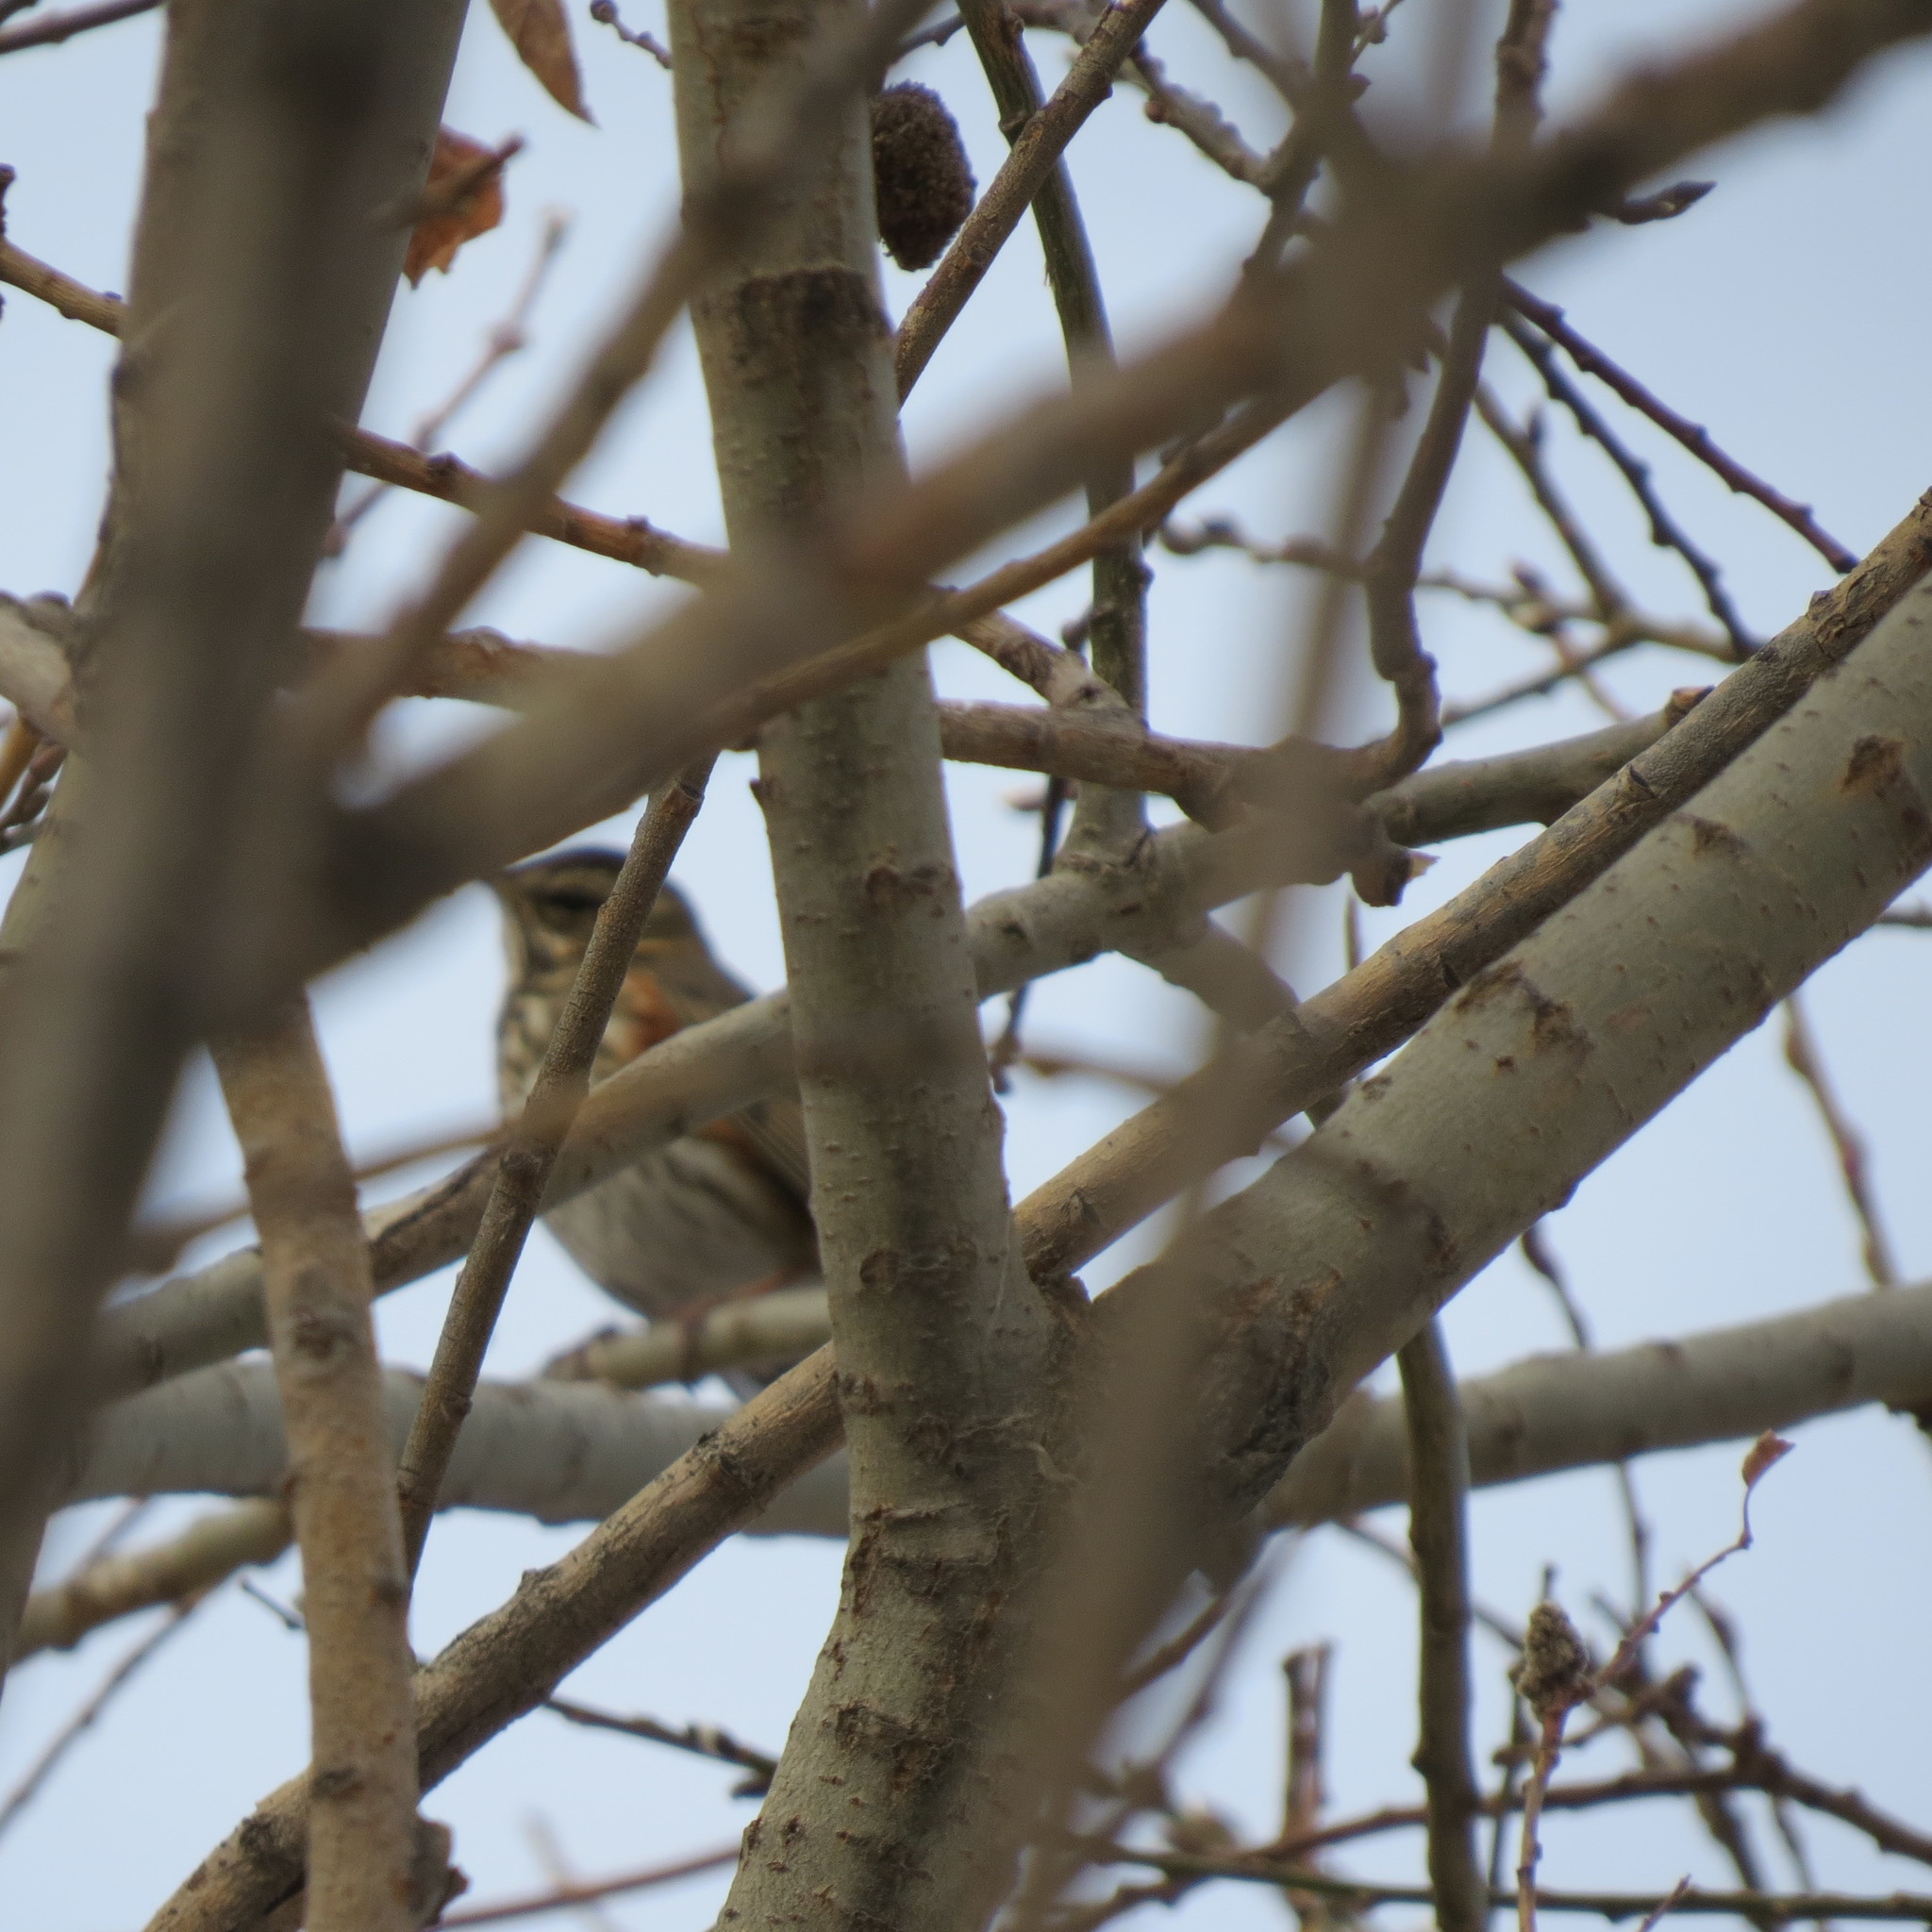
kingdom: Animalia
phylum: Chordata
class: Aves
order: Passeriformes
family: Turdidae
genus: Turdus
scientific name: Turdus iliacus
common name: Redwing
